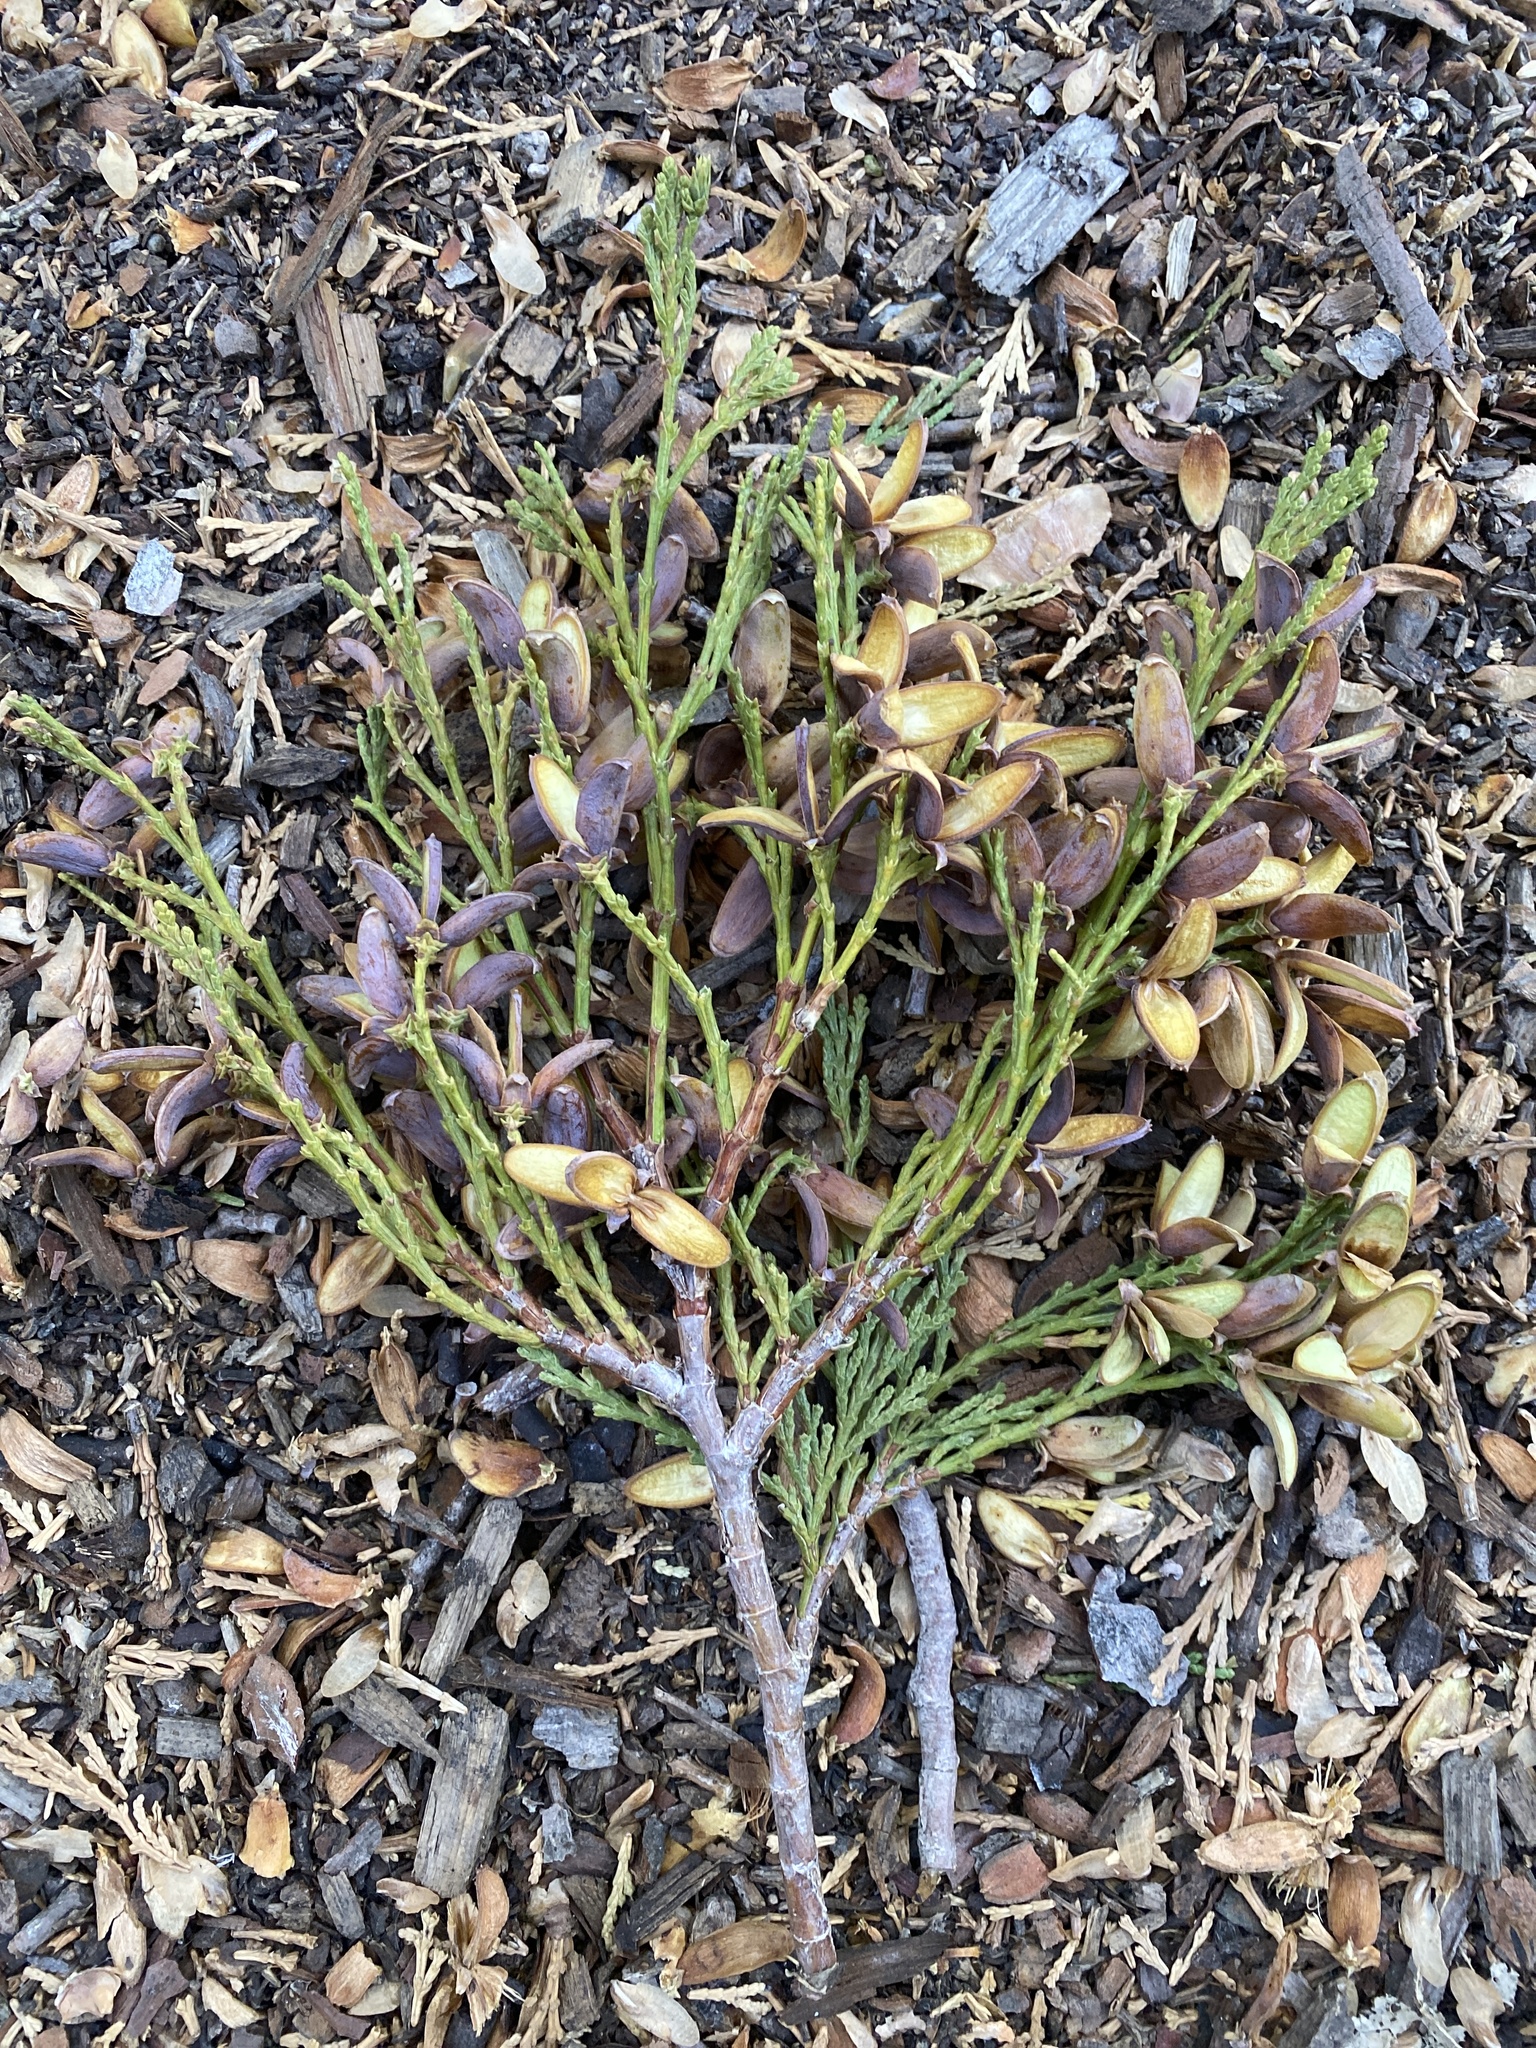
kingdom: Plantae
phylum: Tracheophyta
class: Pinopsida
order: Pinales
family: Cupressaceae
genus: Calocedrus
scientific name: Calocedrus decurrens
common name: Californian incense-cedar
